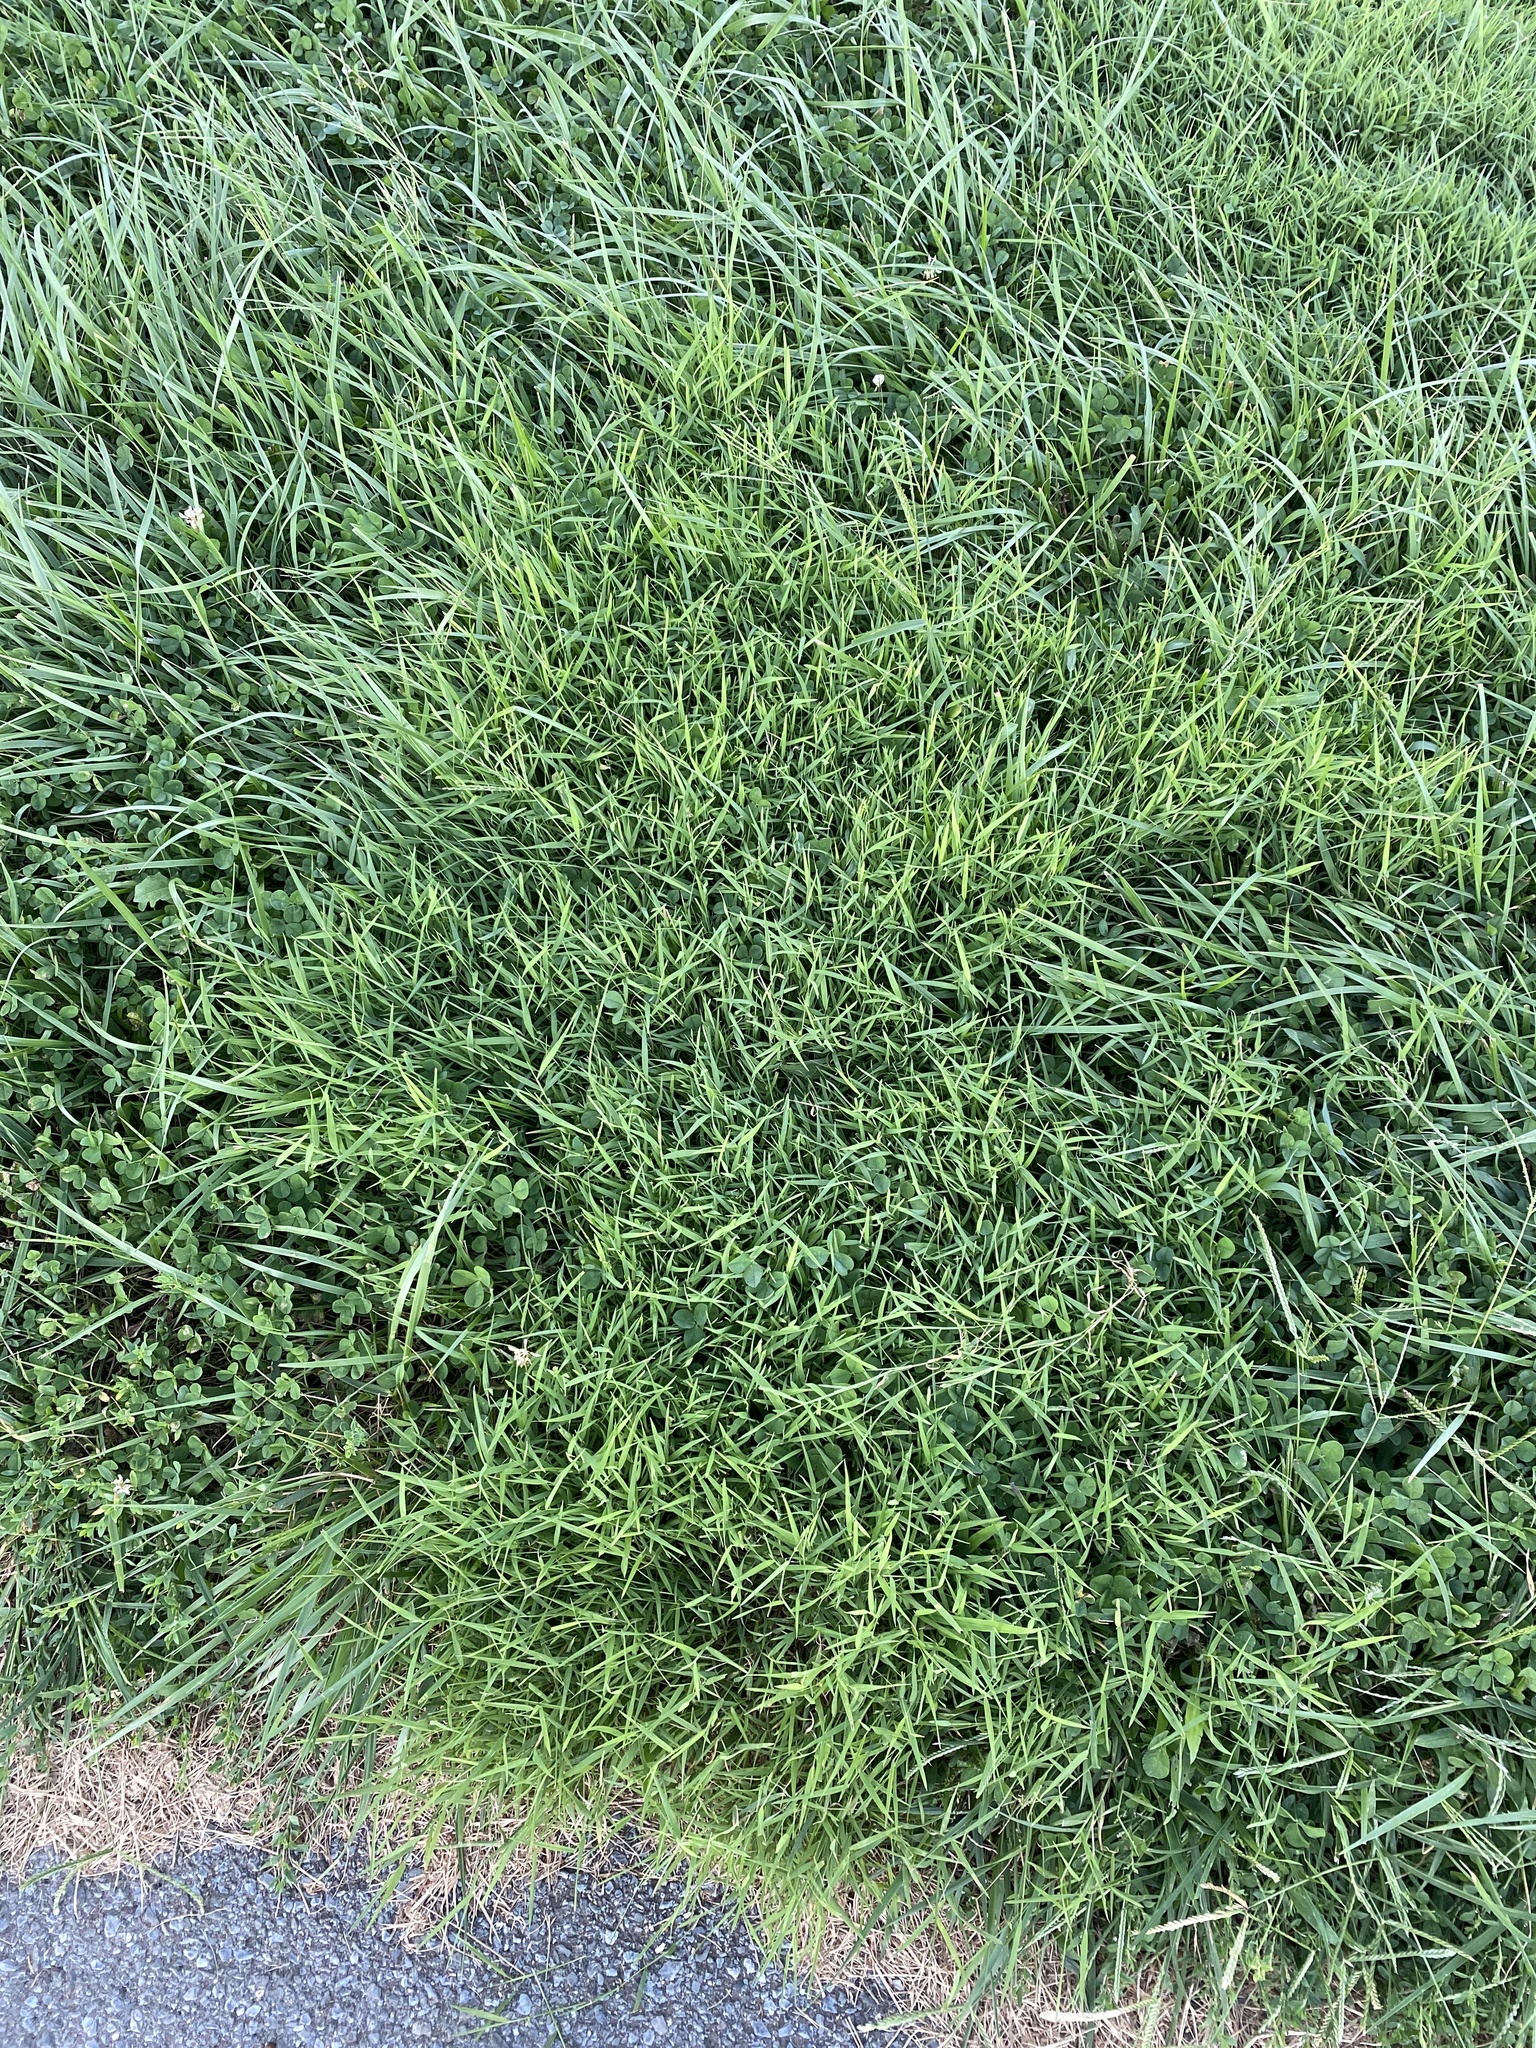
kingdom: Plantae
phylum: Tracheophyta
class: Liliopsida
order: Poales
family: Poaceae
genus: Muhlenbergia
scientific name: Muhlenbergia schreberi
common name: Nimblewill
